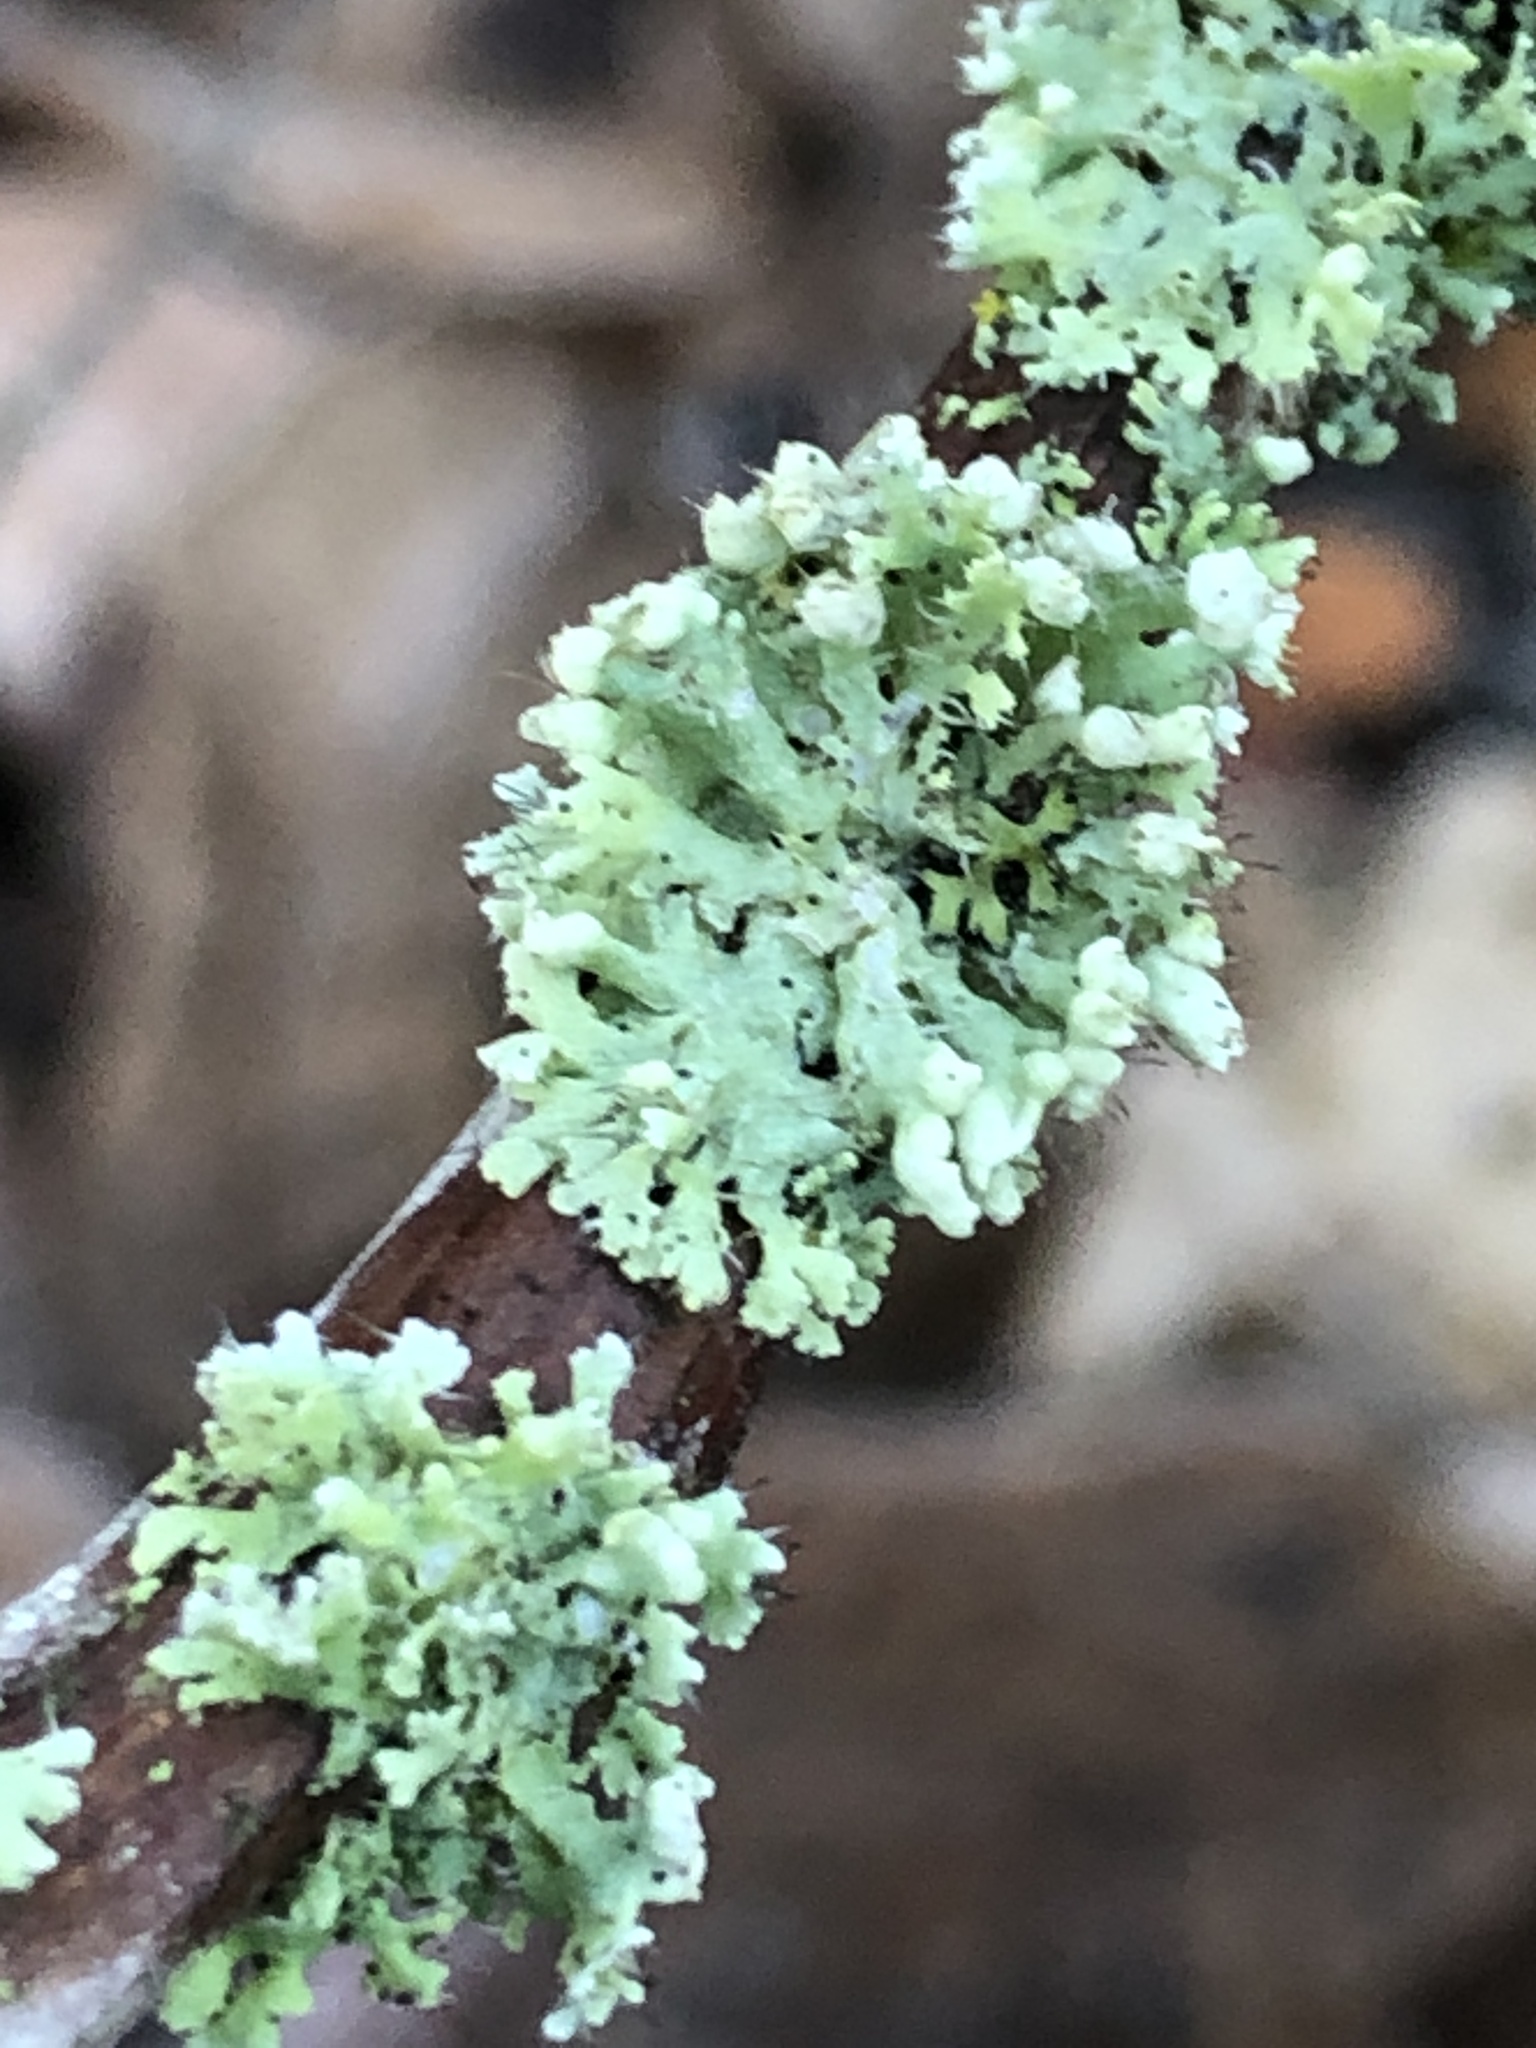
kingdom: Fungi
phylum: Ascomycota
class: Lecanoromycetes
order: Caliciales
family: Physciaceae
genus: Physcia
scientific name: Physcia adscendens
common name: Hooded rosette lichen
